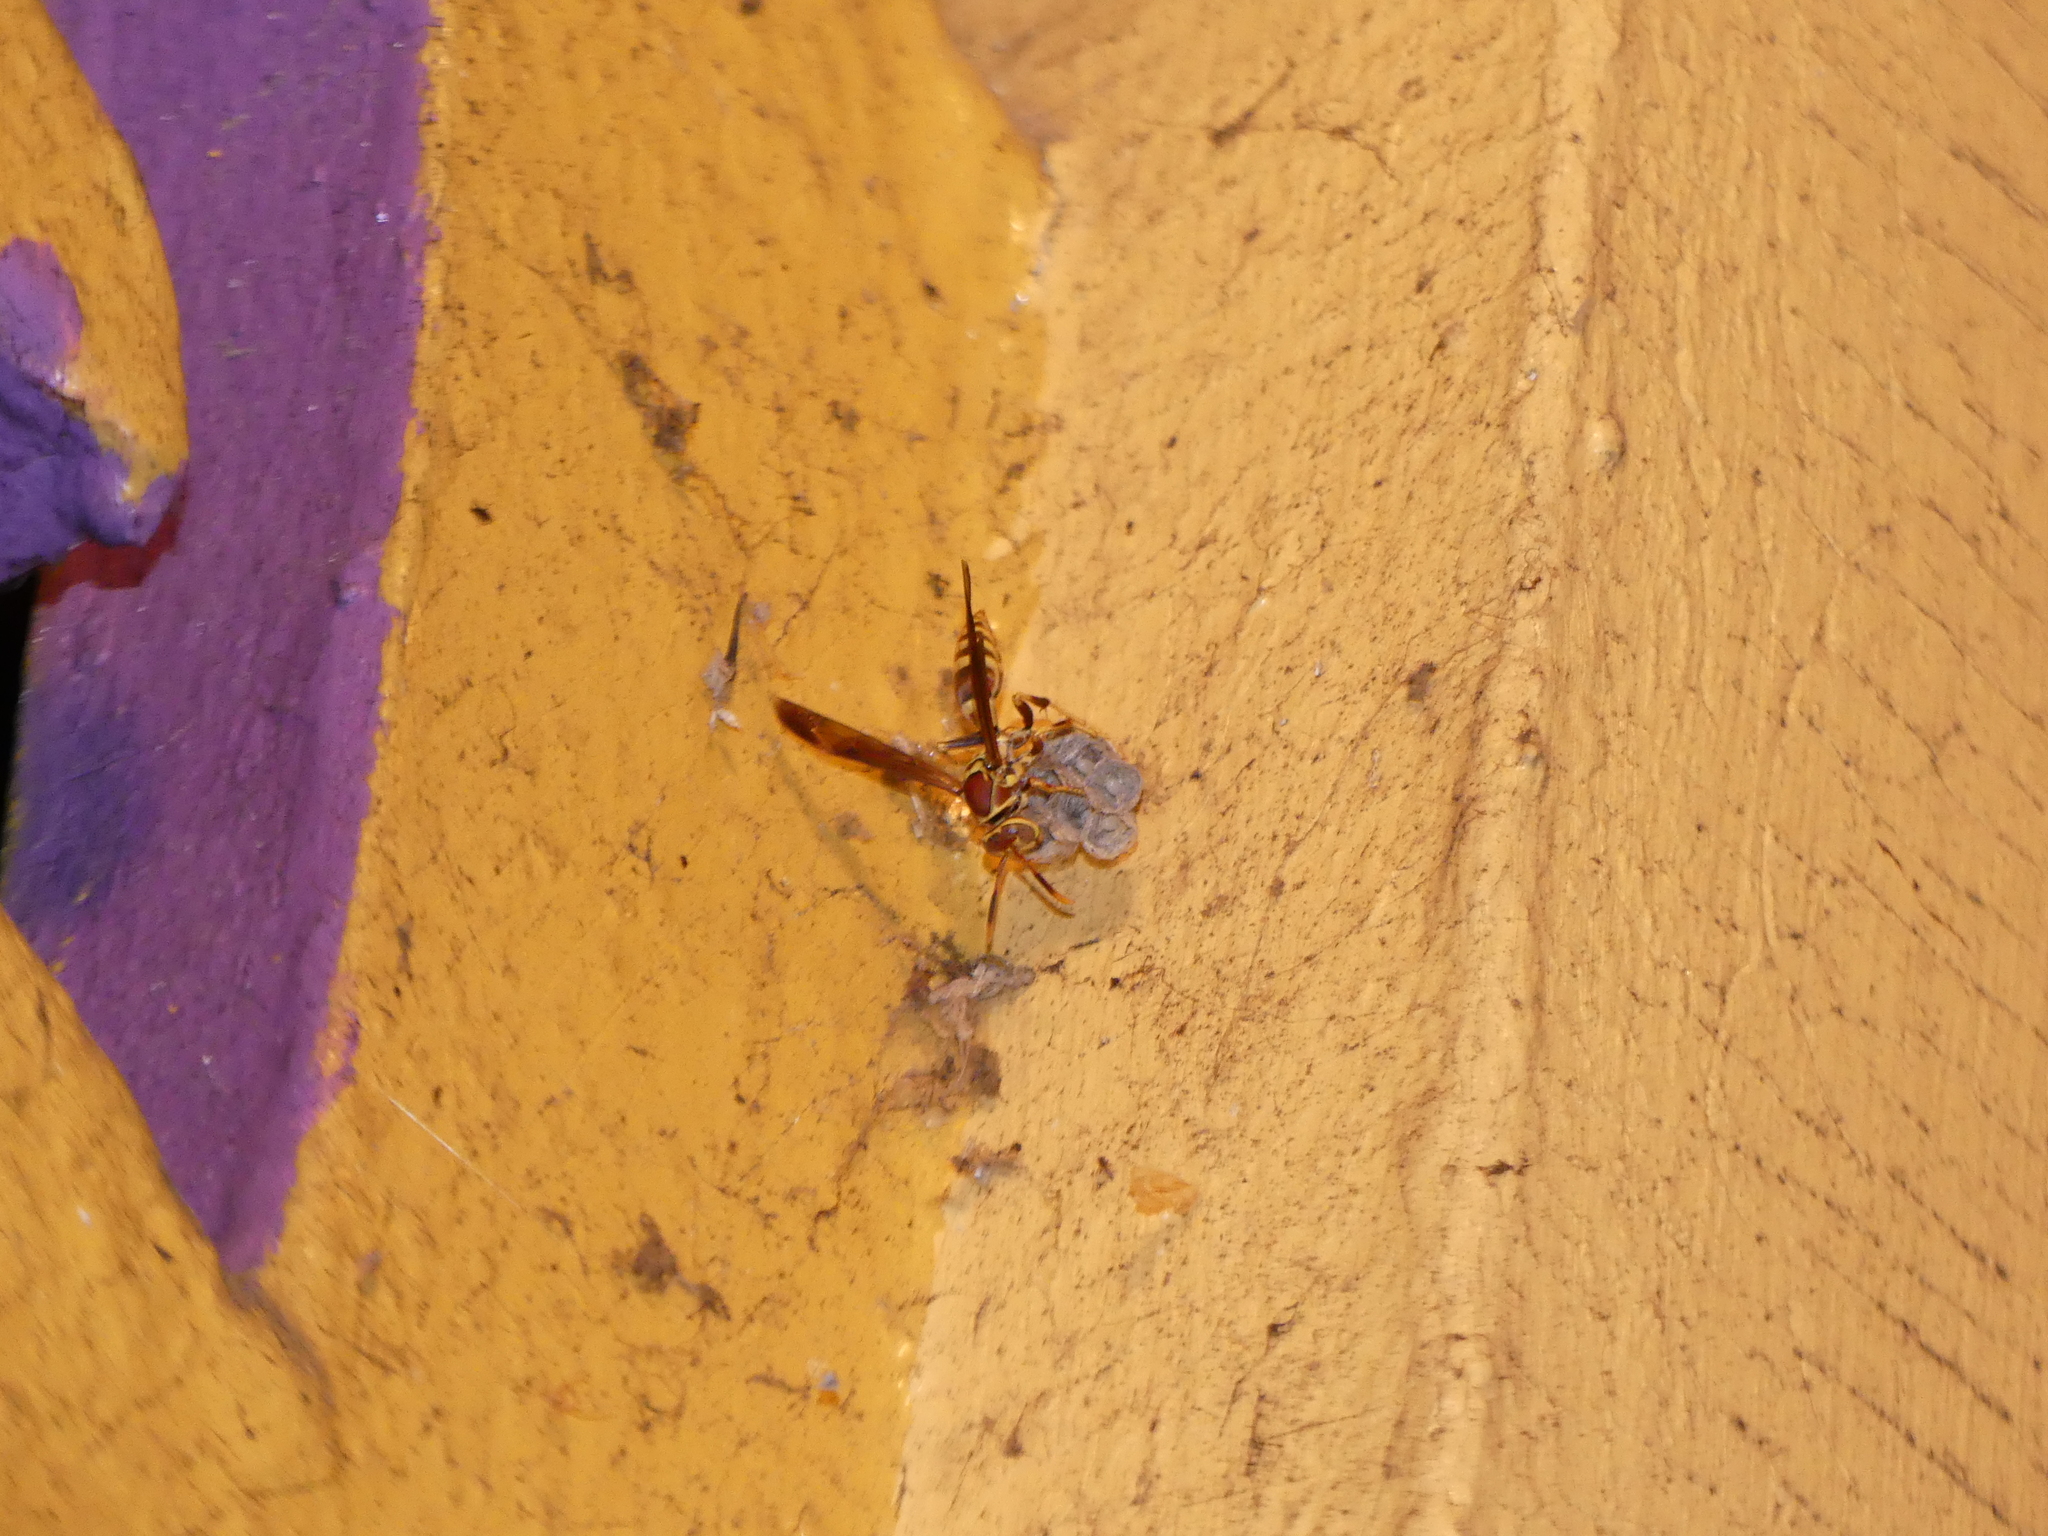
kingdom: Animalia
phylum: Arthropoda
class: Insecta
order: Hymenoptera
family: Eumenidae
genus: Polistes
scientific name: Polistes exclamans
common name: Paper wasp
